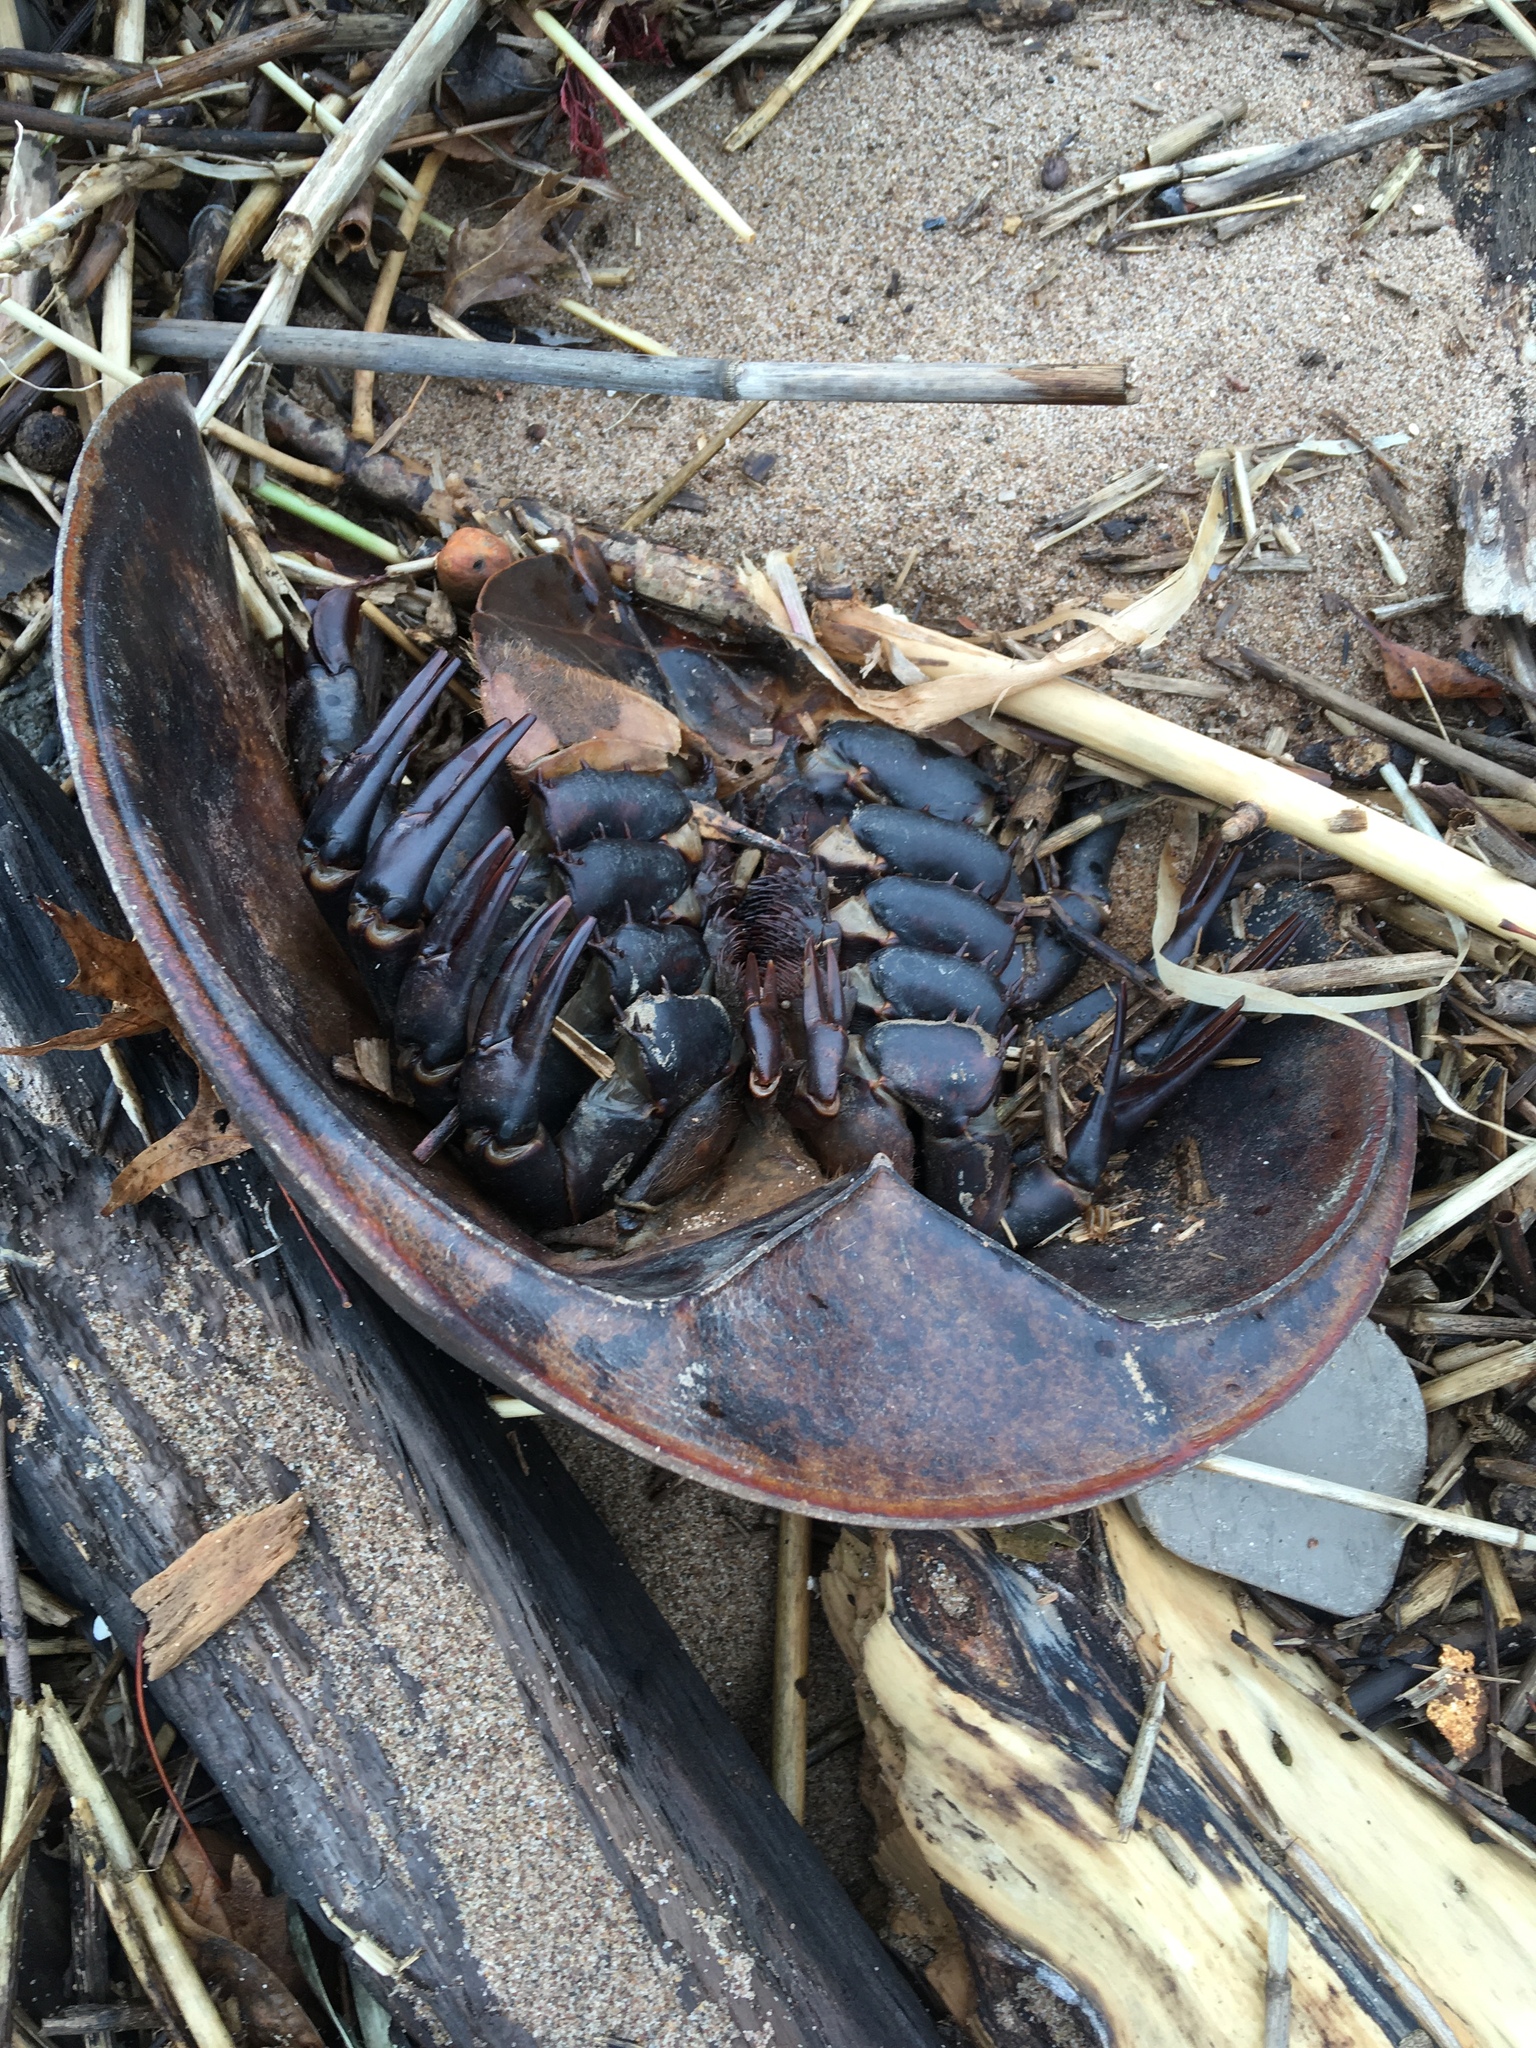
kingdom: Animalia
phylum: Arthropoda
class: Merostomata
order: Xiphosurida
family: Limulidae
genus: Limulus
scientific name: Limulus polyphemus
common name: Horseshoe crab
